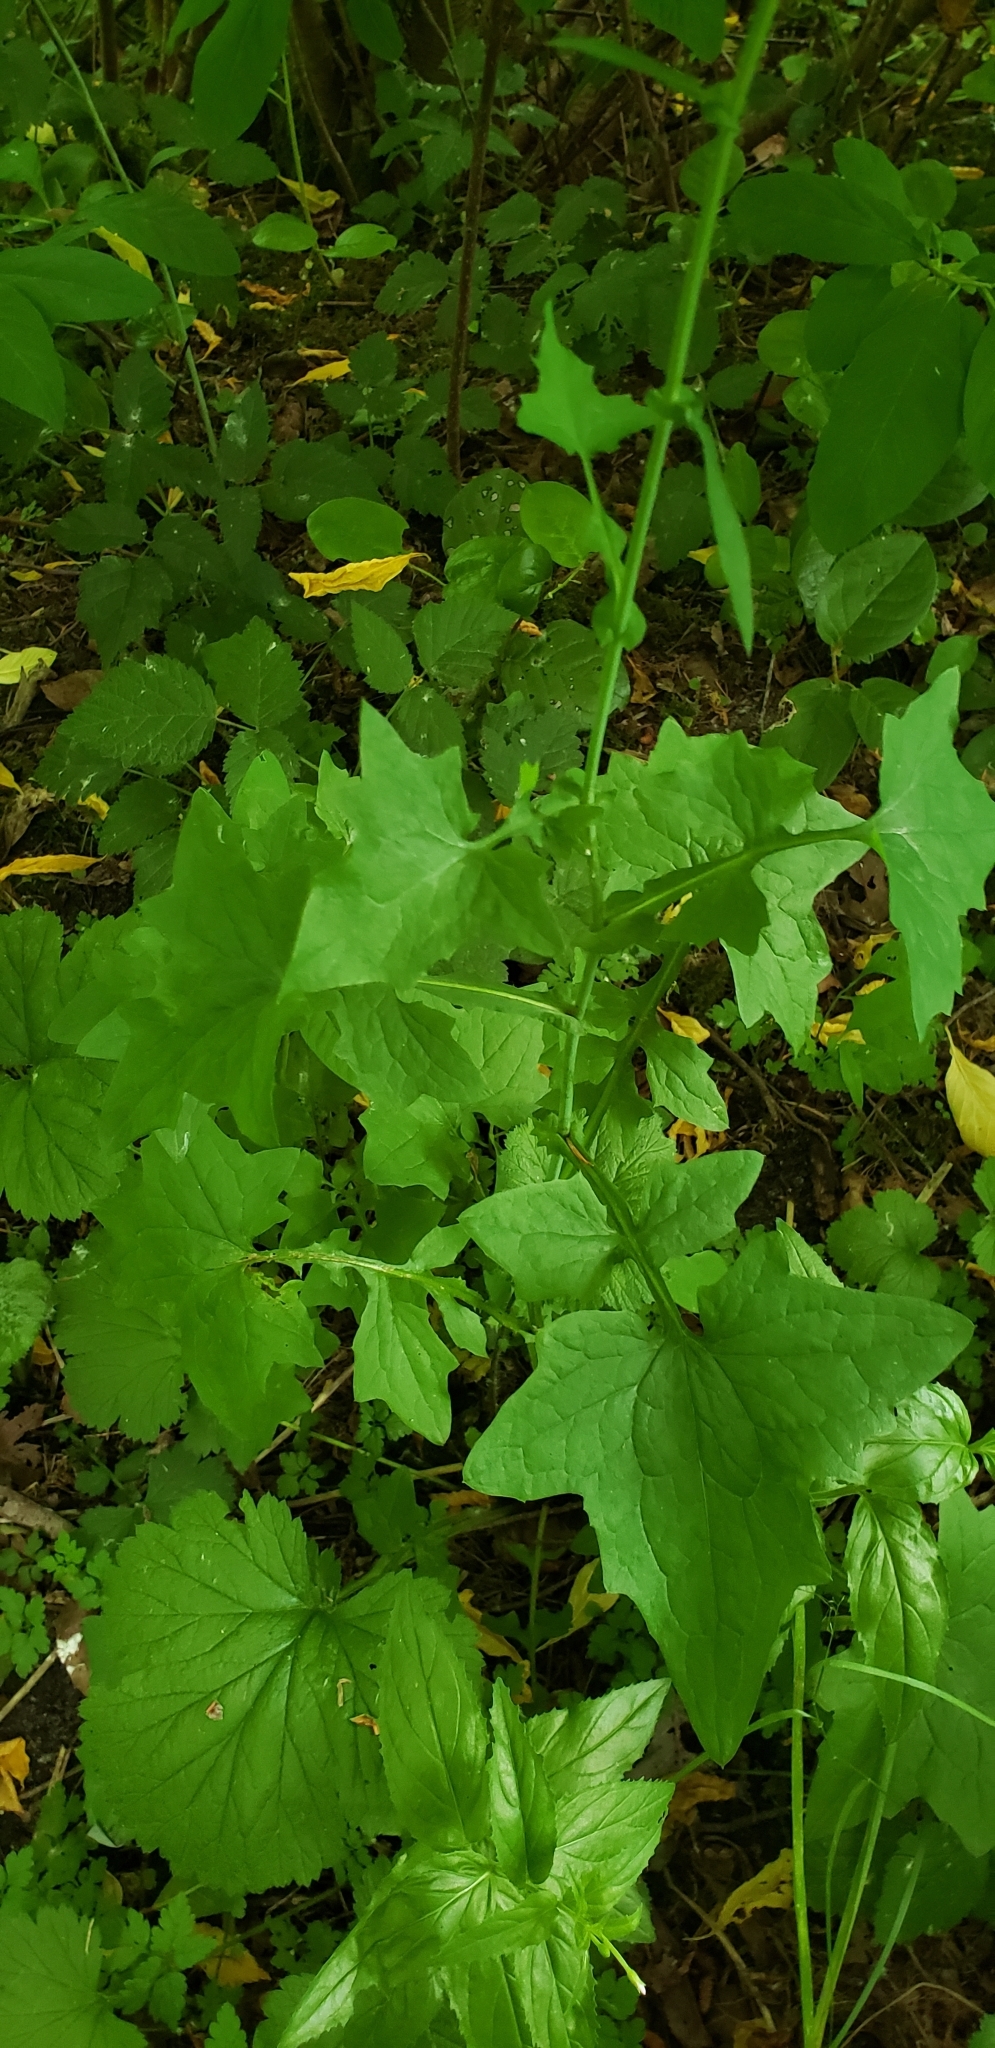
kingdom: Plantae
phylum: Tracheophyta
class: Magnoliopsida
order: Asterales
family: Asteraceae
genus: Mycelis
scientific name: Mycelis muralis
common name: Wall lettuce
